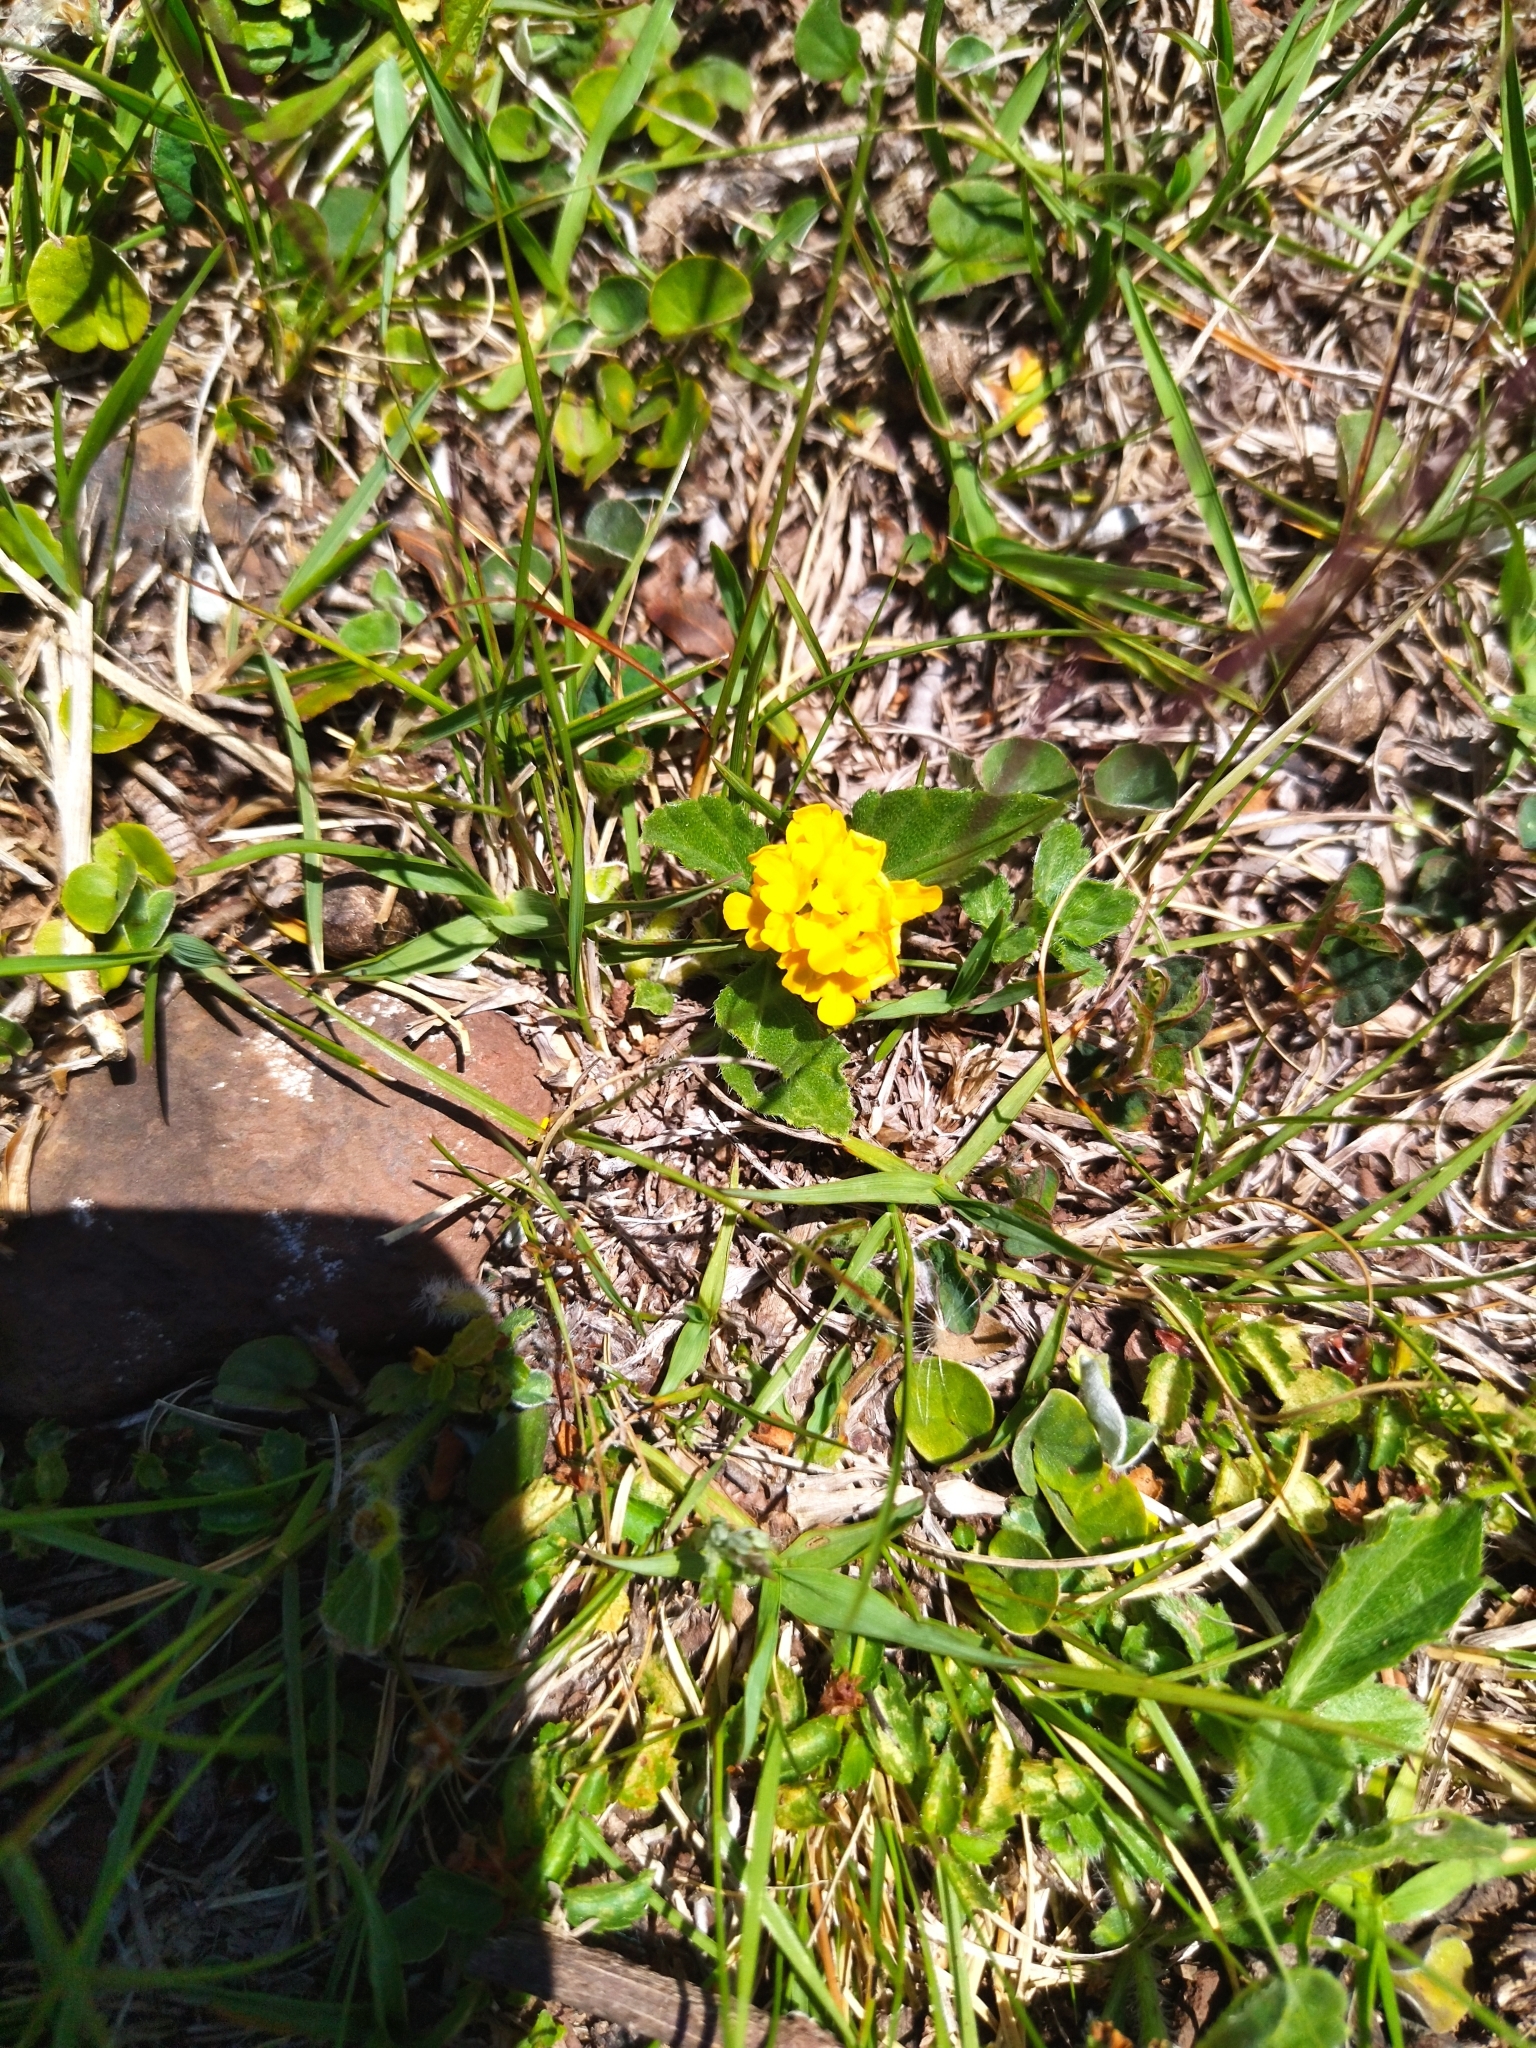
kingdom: Plantae
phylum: Tracheophyta
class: Magnoliopsida
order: Lamiales
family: Verbenaceae
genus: Lippia
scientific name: Lippia coarctata
